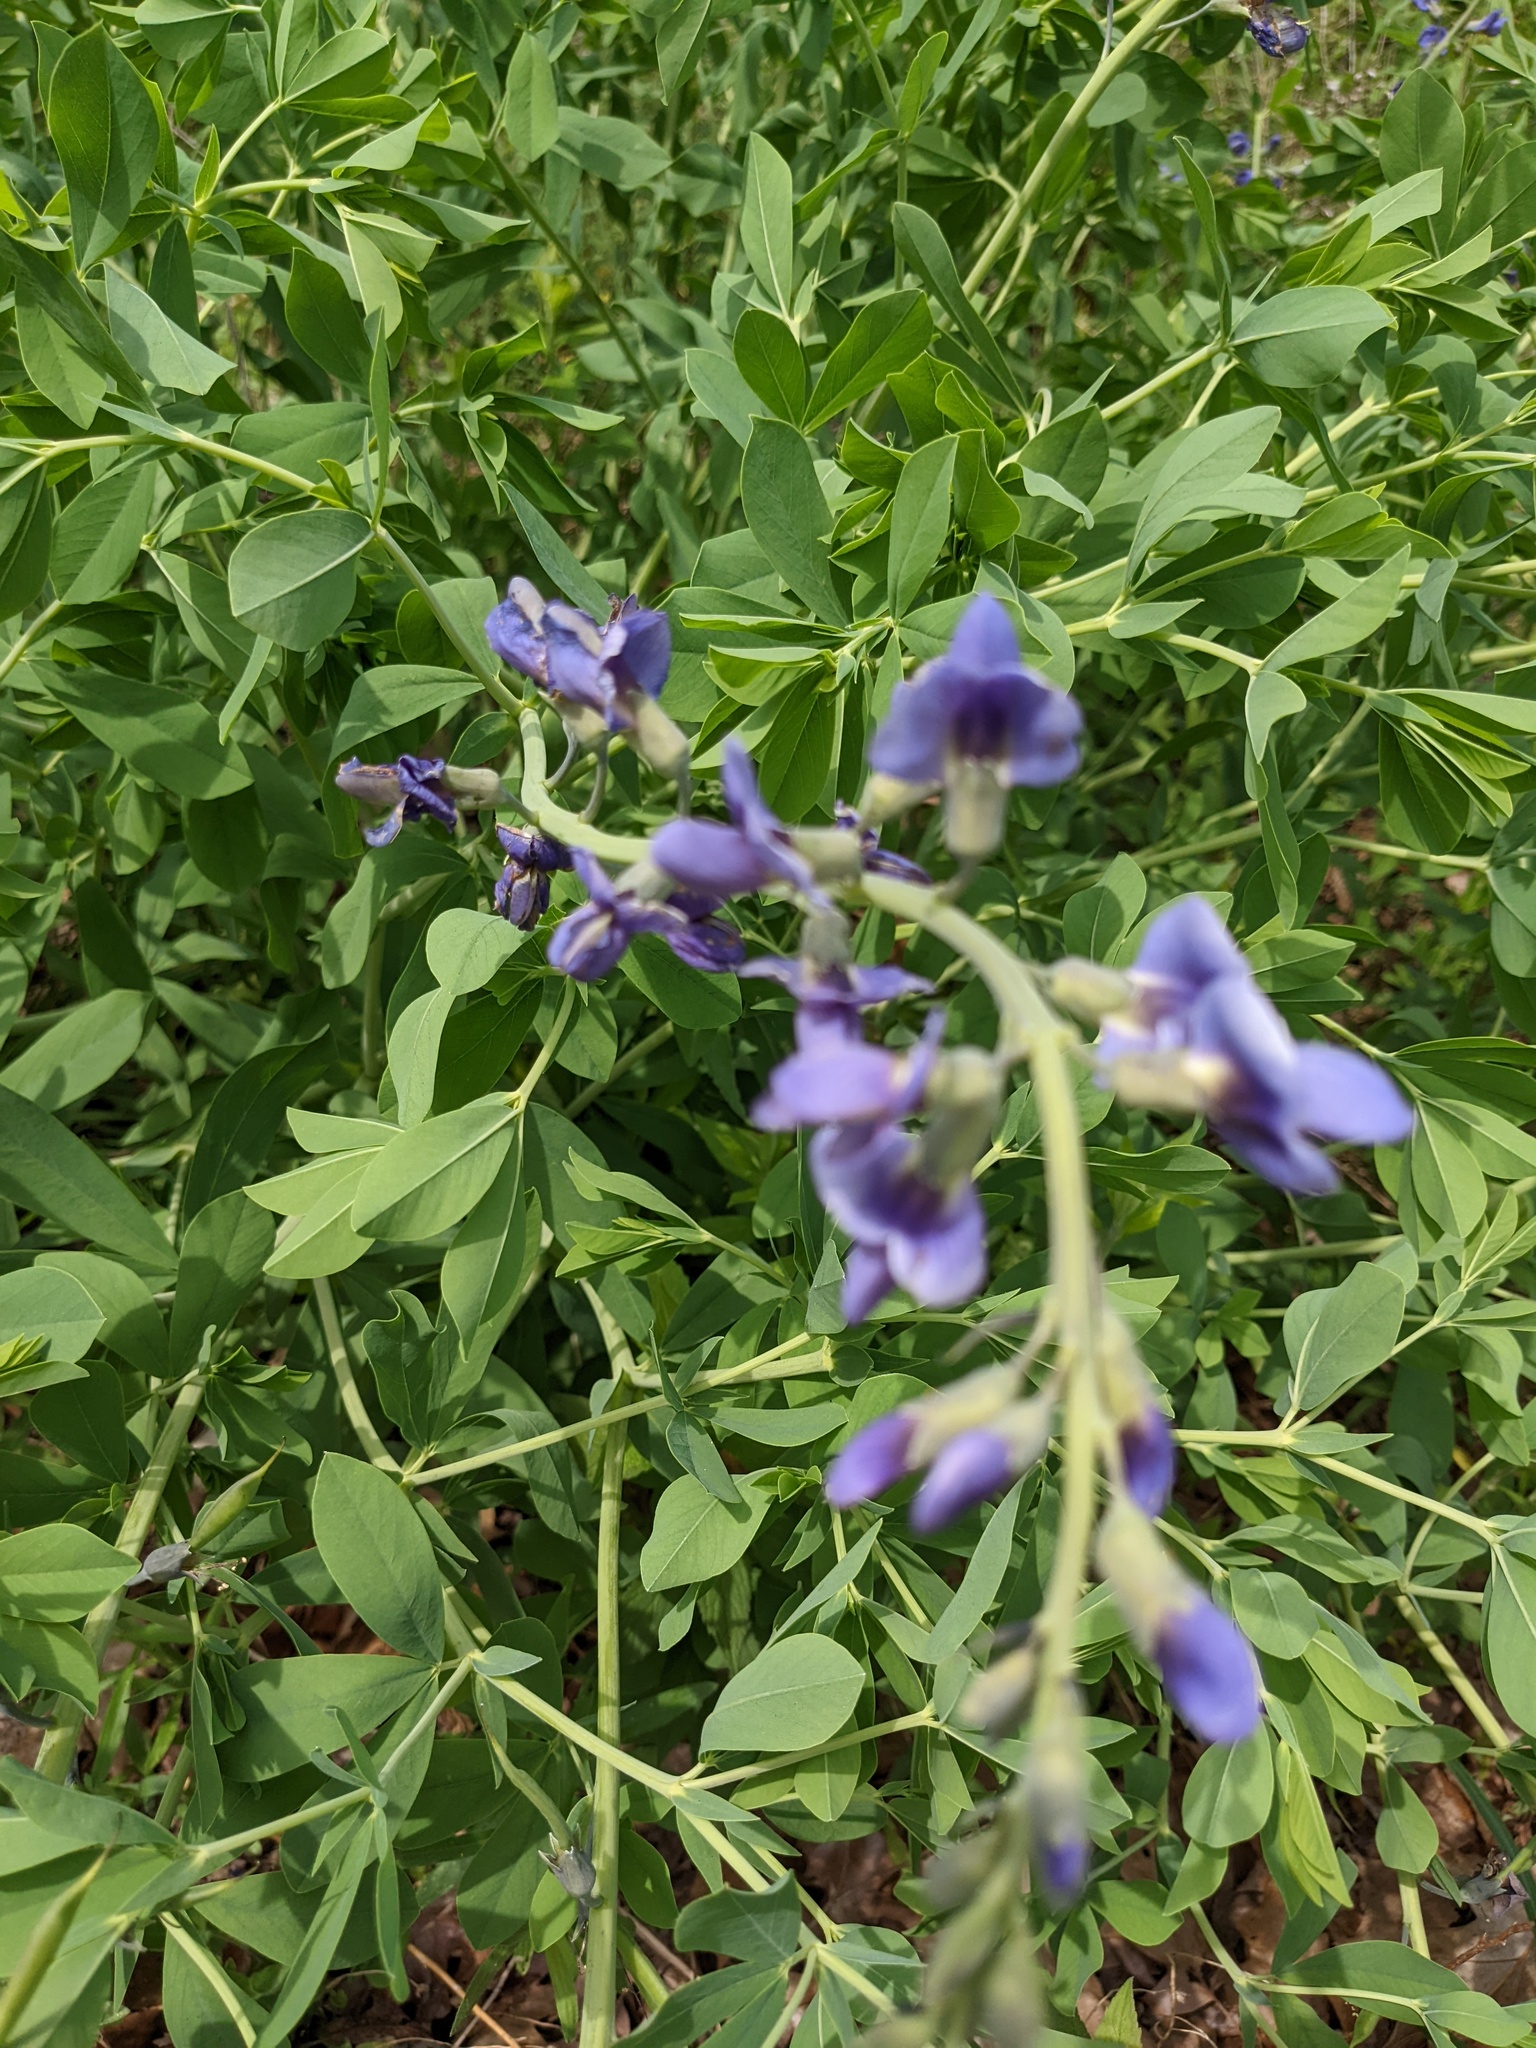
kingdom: Plantae
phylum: Tracheophyta
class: Magnoliopsida
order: Fabales
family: Fabaceae
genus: Baptisia
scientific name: Baptisia australis
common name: Blue false indigo
